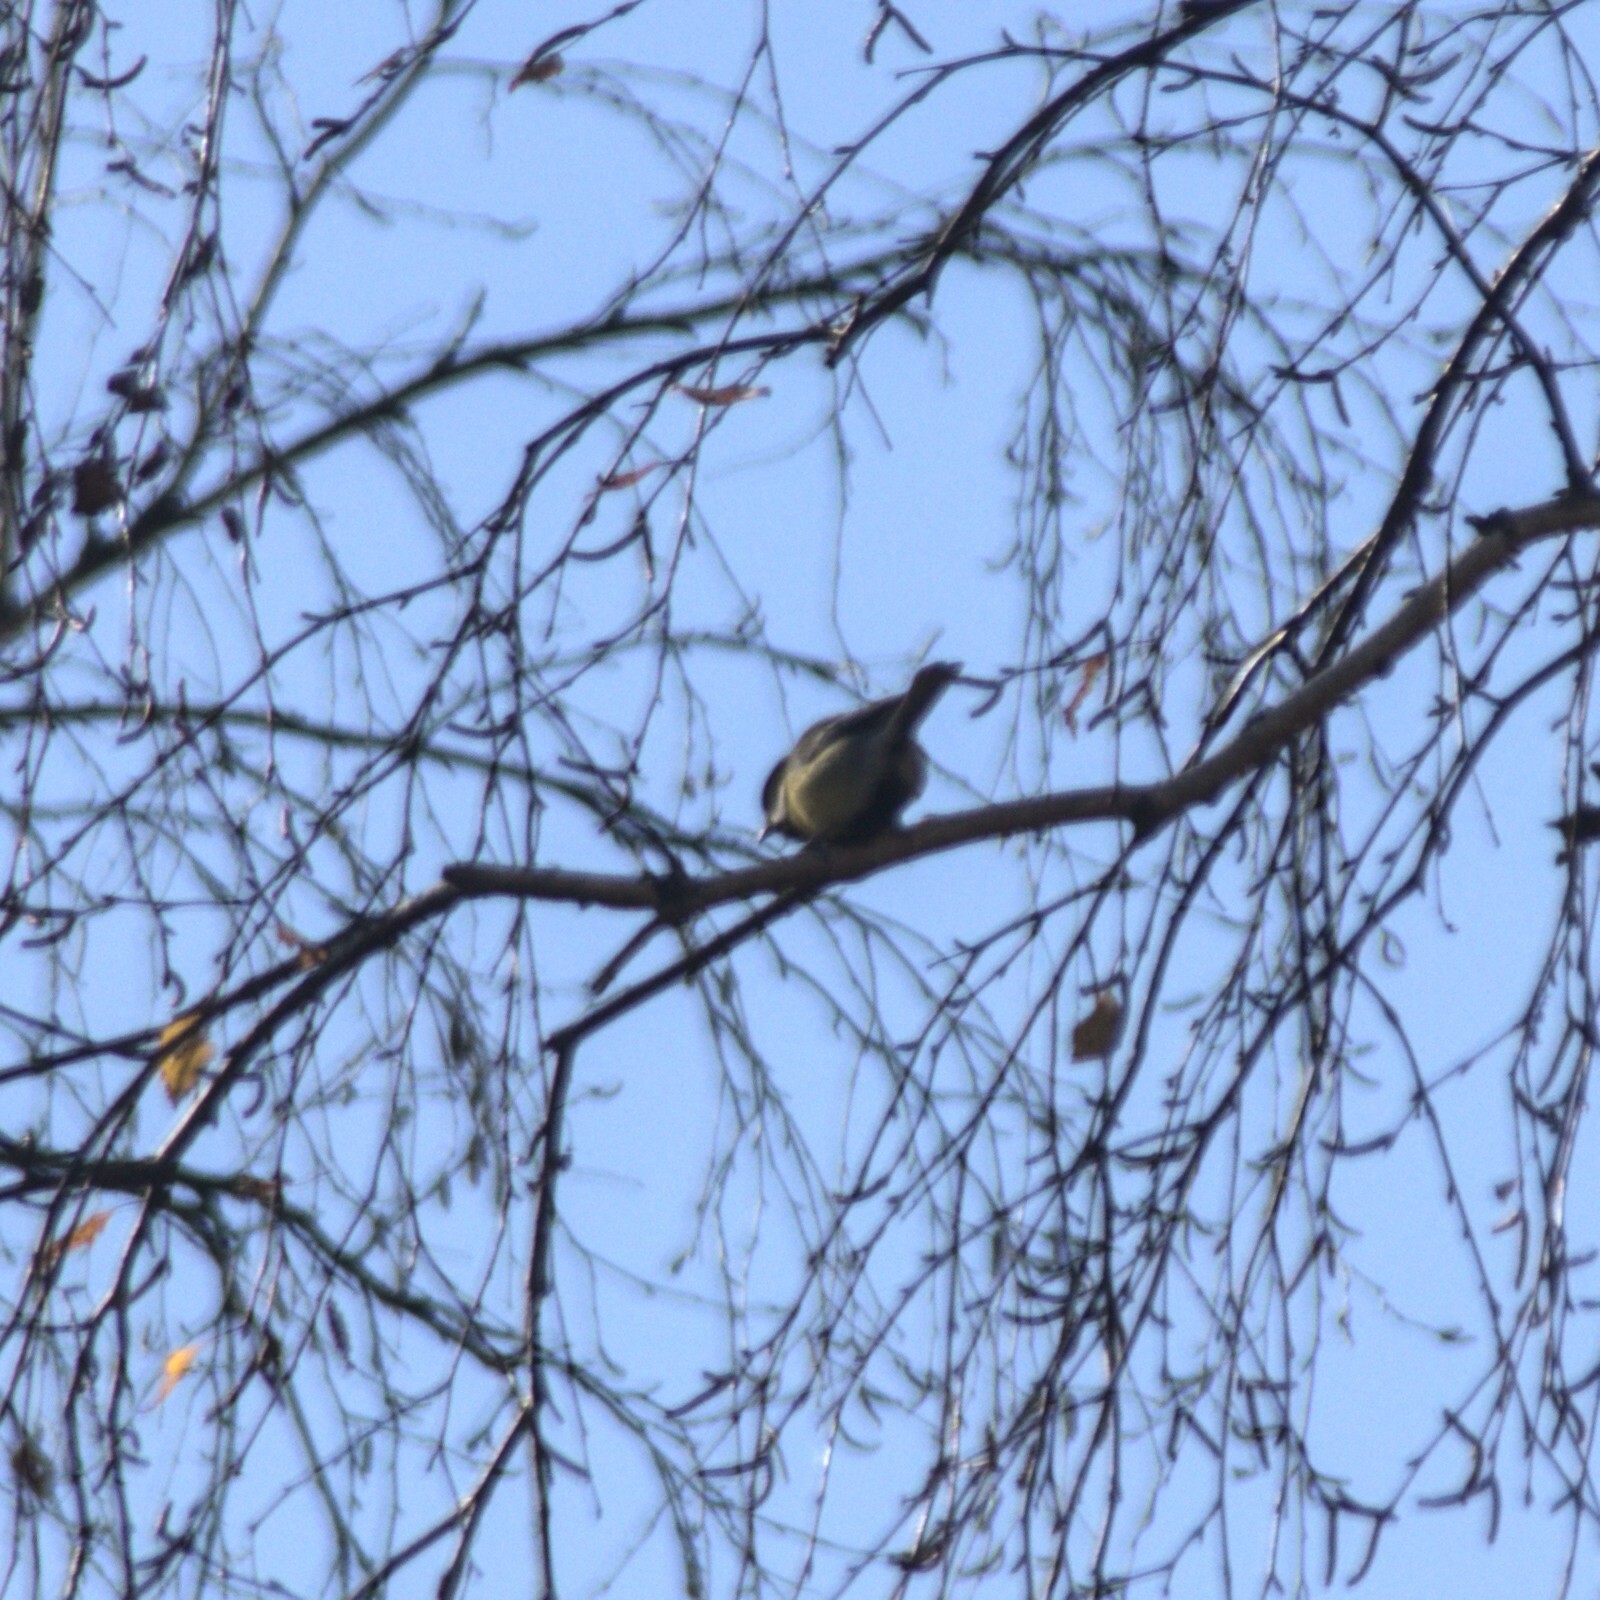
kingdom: Animalia
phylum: Chordata
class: Aves
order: Passeriformes
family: Paridae
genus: Parus
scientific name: Parus major
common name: Great tit
